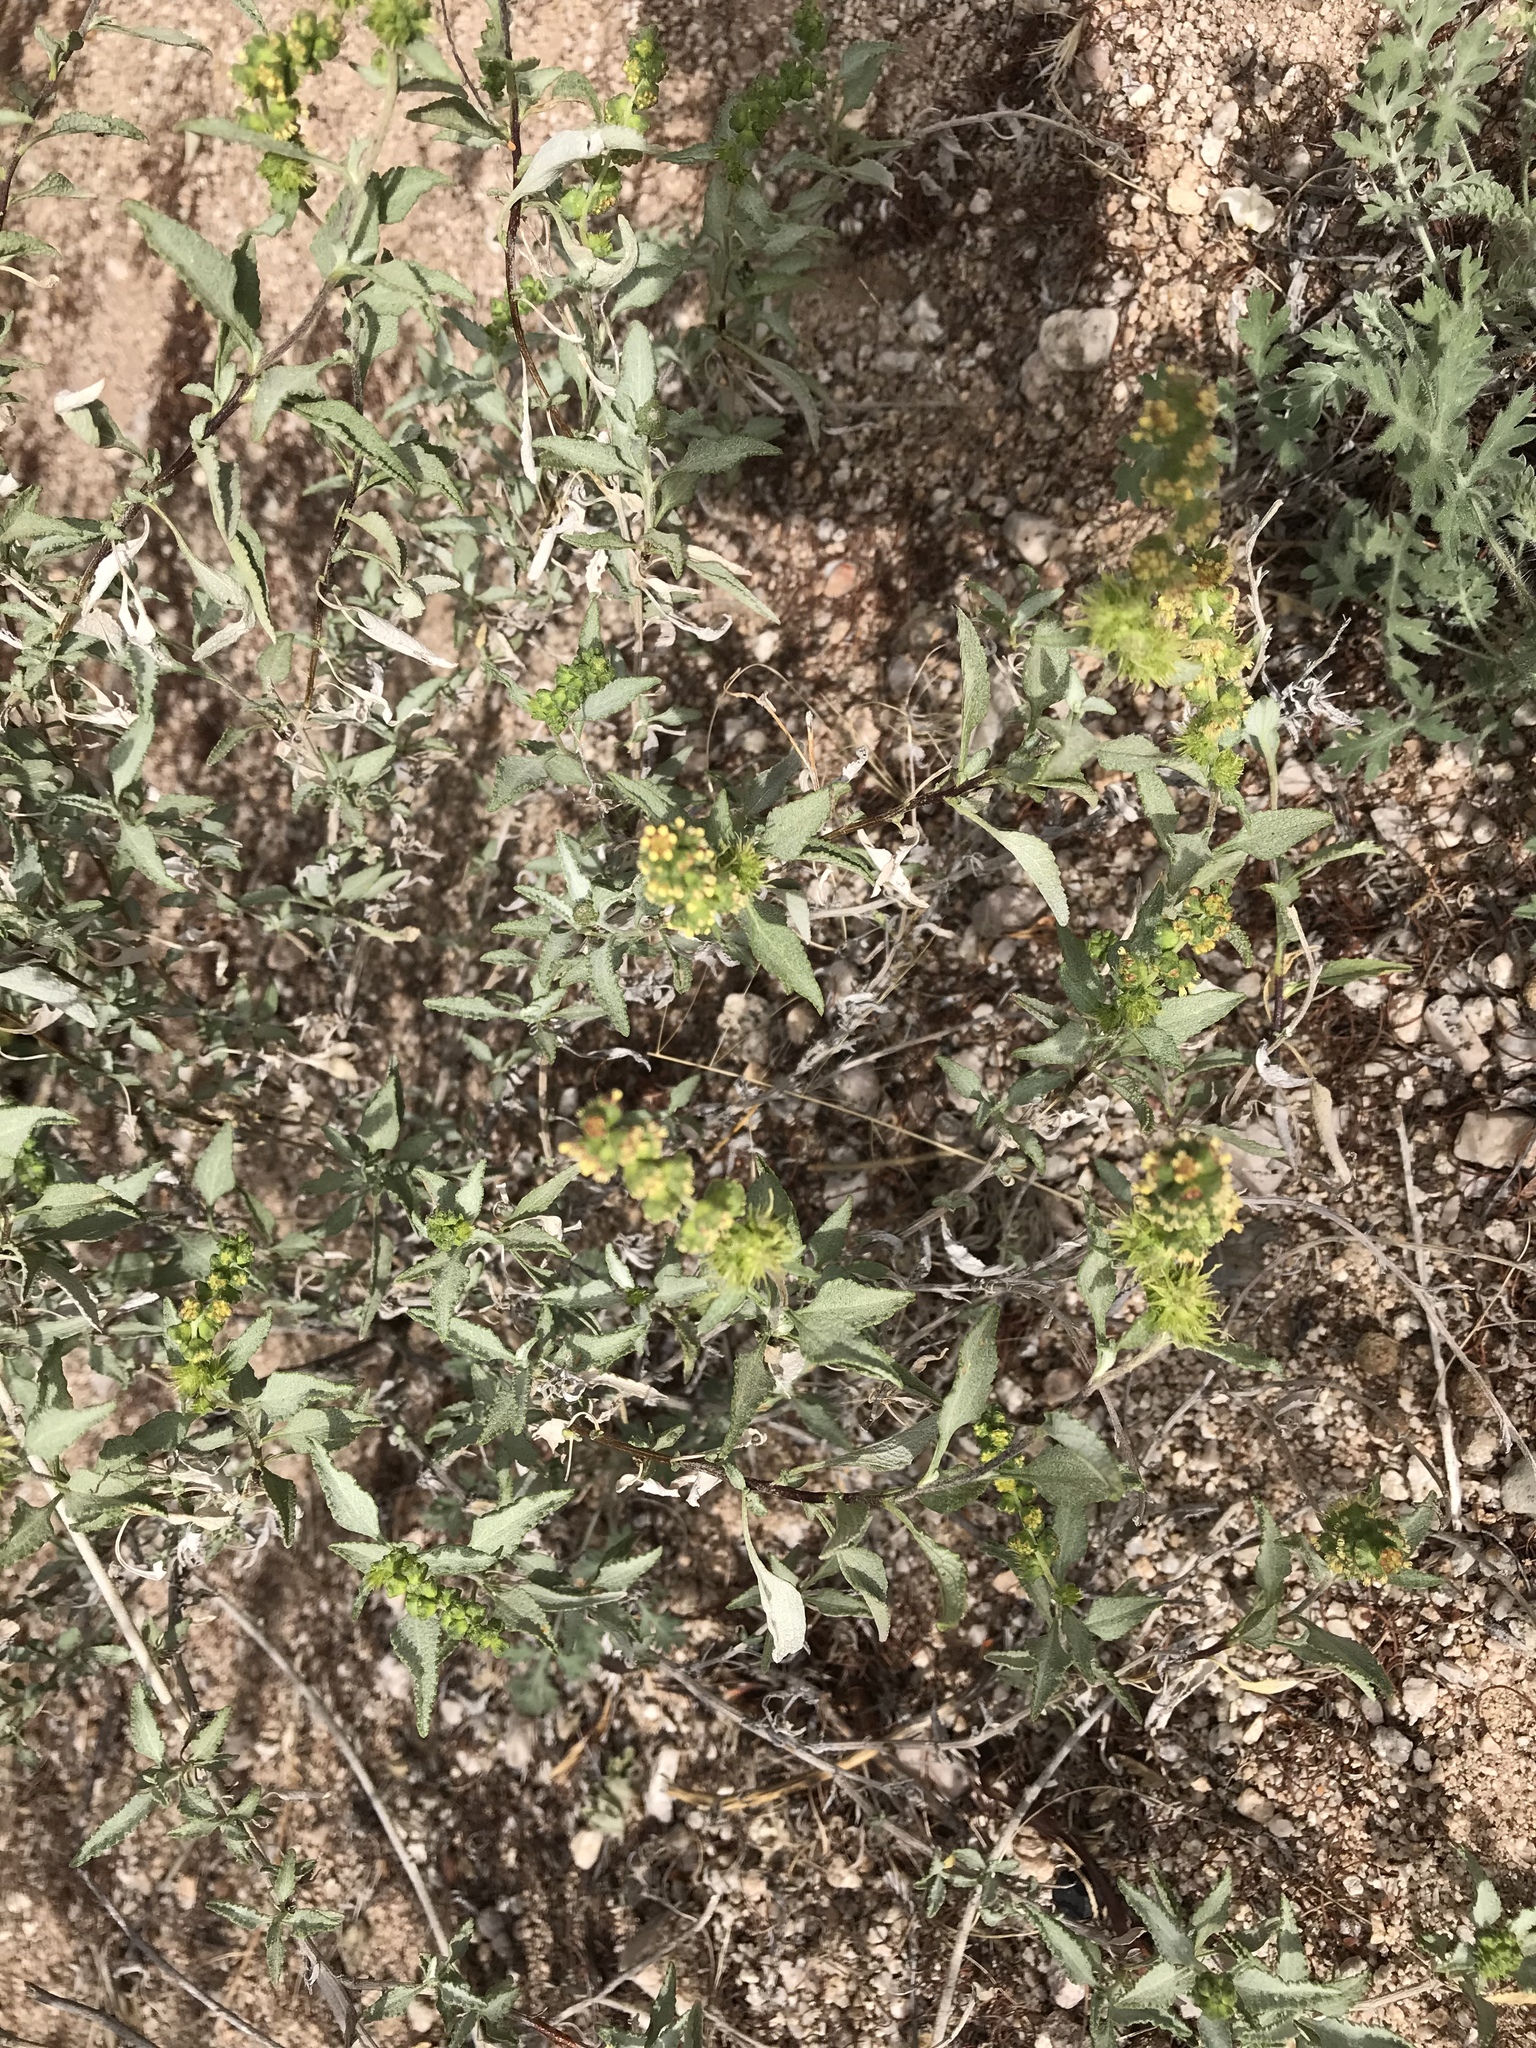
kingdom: Plantae
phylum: Tracheophyta
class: Magnoliopsida
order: Asterales
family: Asteraceae
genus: Ambrosia
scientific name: Ambrosia deltoidea
